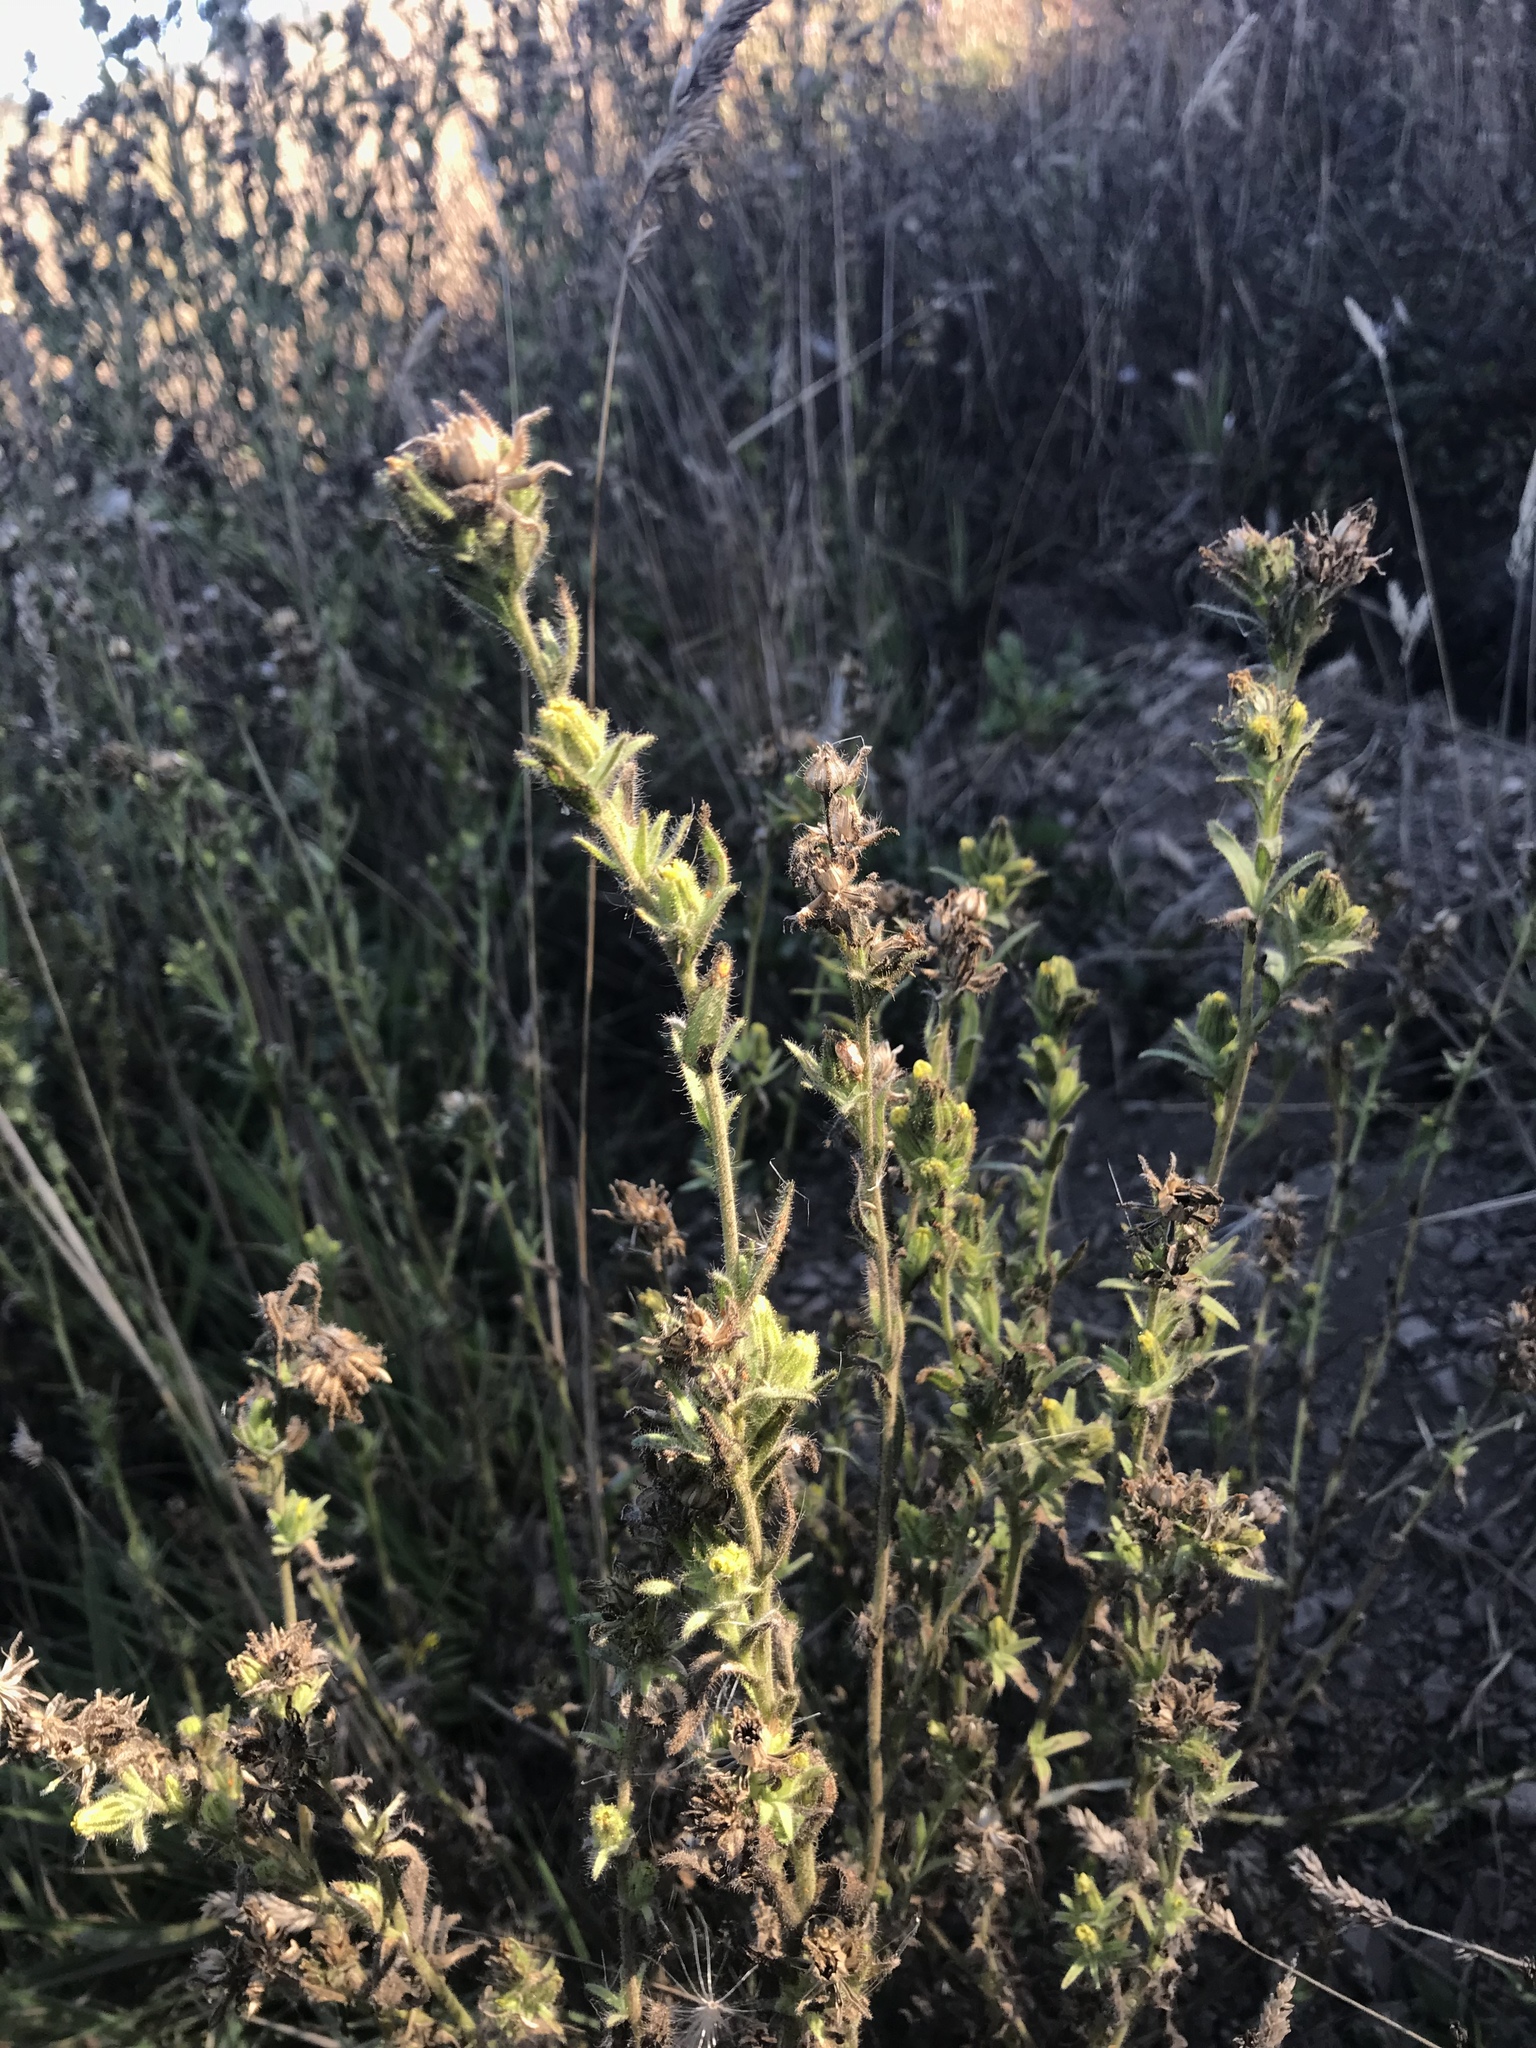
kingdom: Plantae
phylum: Tracheophyta
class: Magnoliopsida
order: Asterales
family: Asteraceae
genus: Madia
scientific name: Madia sativa
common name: Coast tarweed
